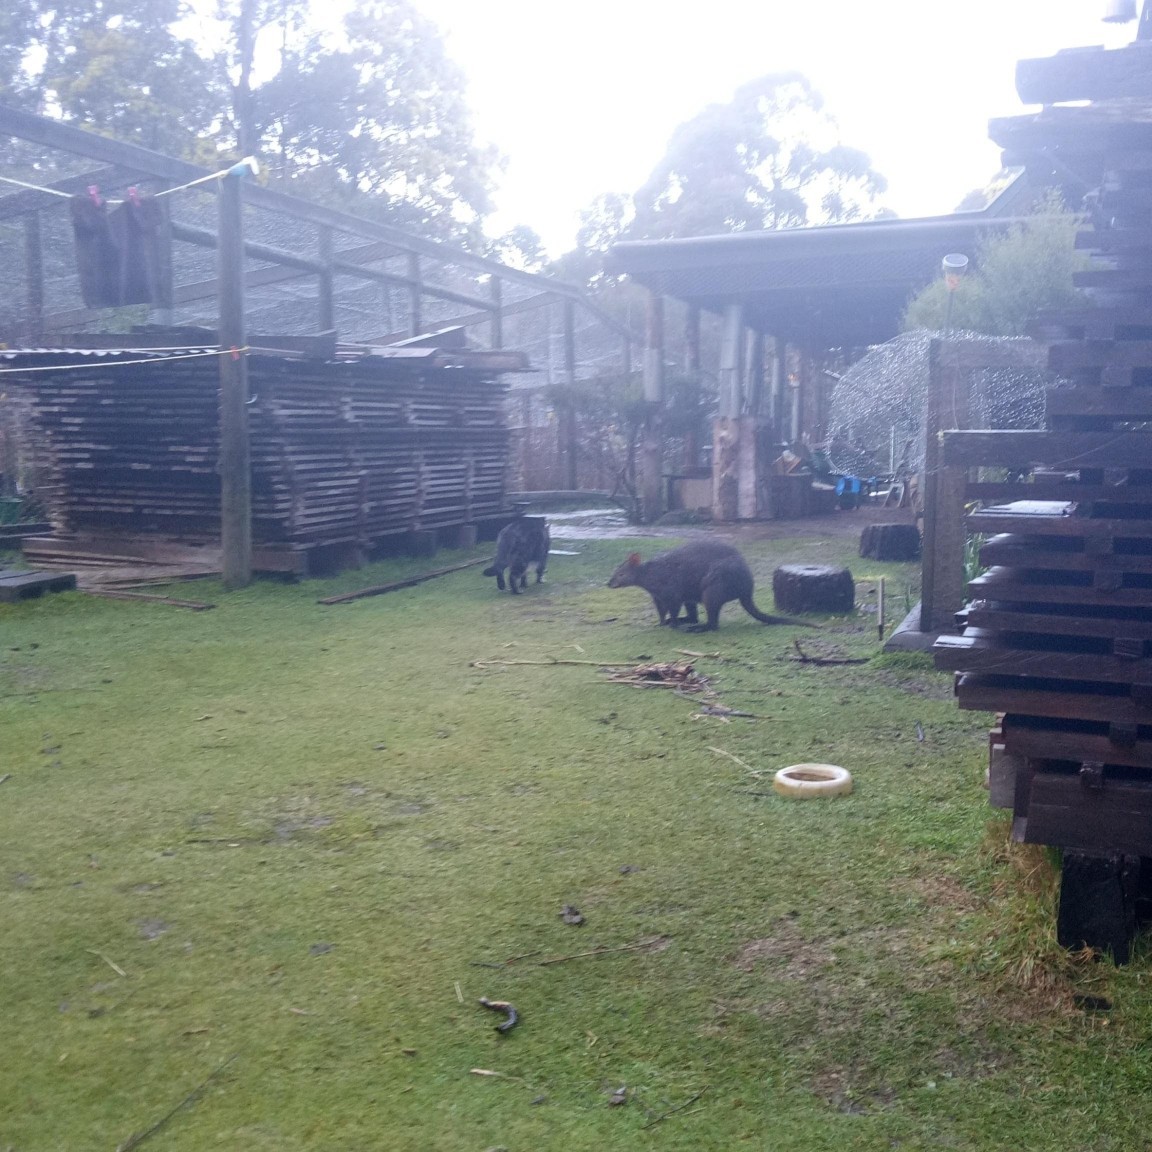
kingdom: Animalia
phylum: Chordata
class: Mammalia
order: Diprotodontia
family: Macropodidae
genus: Thylogale
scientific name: Thylogale billardierii
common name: Tasmanian pademelon
